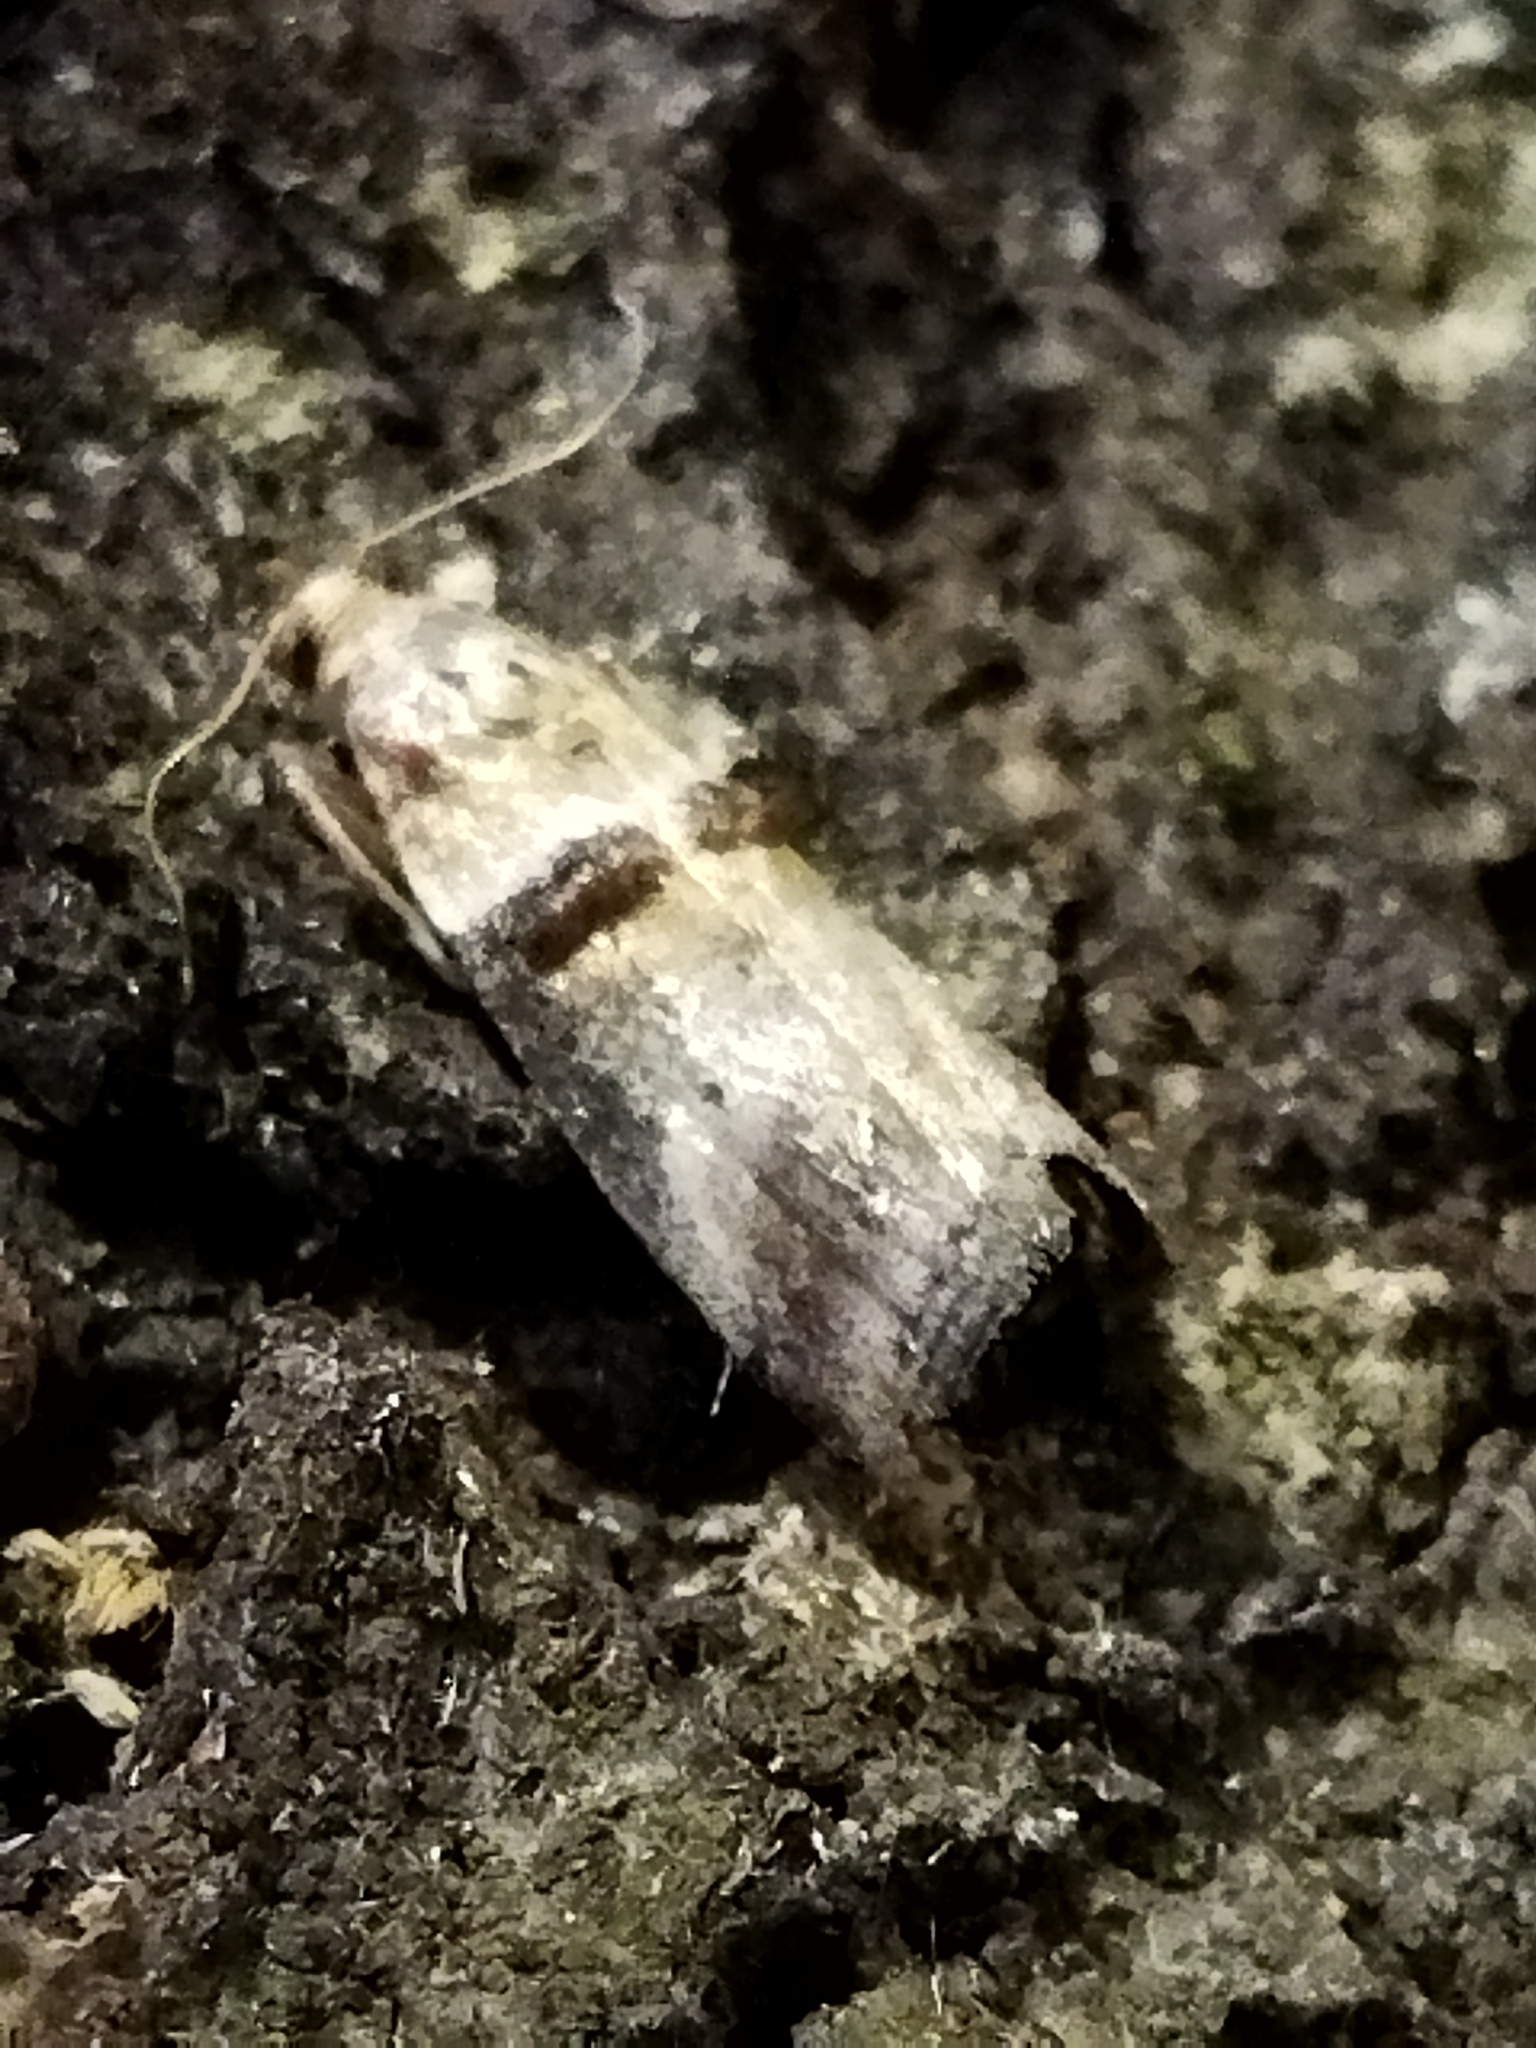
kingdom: Animalia
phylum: Arthropoda
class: Insecta
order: Lepidoptera
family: Pyralidae
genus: Acrobasis
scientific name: Acrobasis tumidana
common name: Scarce oak knot-horn
